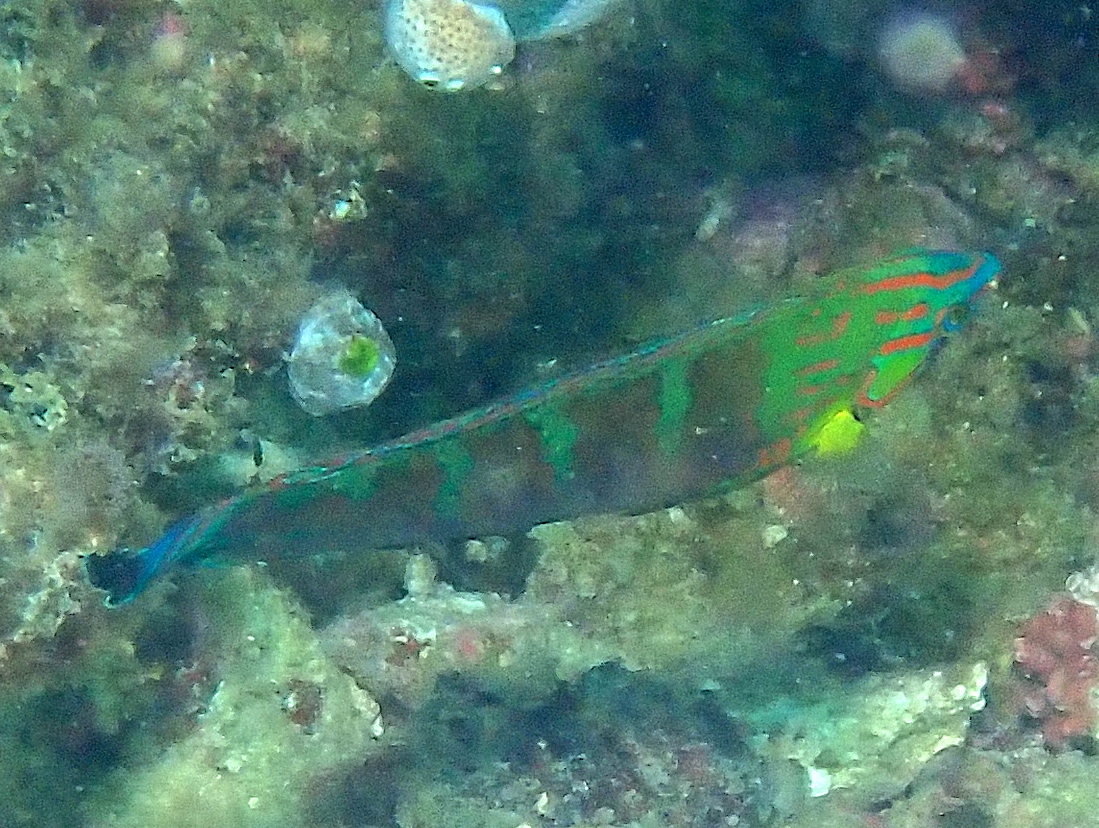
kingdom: Animalia
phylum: Chordata
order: Perciformes
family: Labridae
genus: Halichoeres
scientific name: Halichoeres melanurus
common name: Hoeven's wrasse
